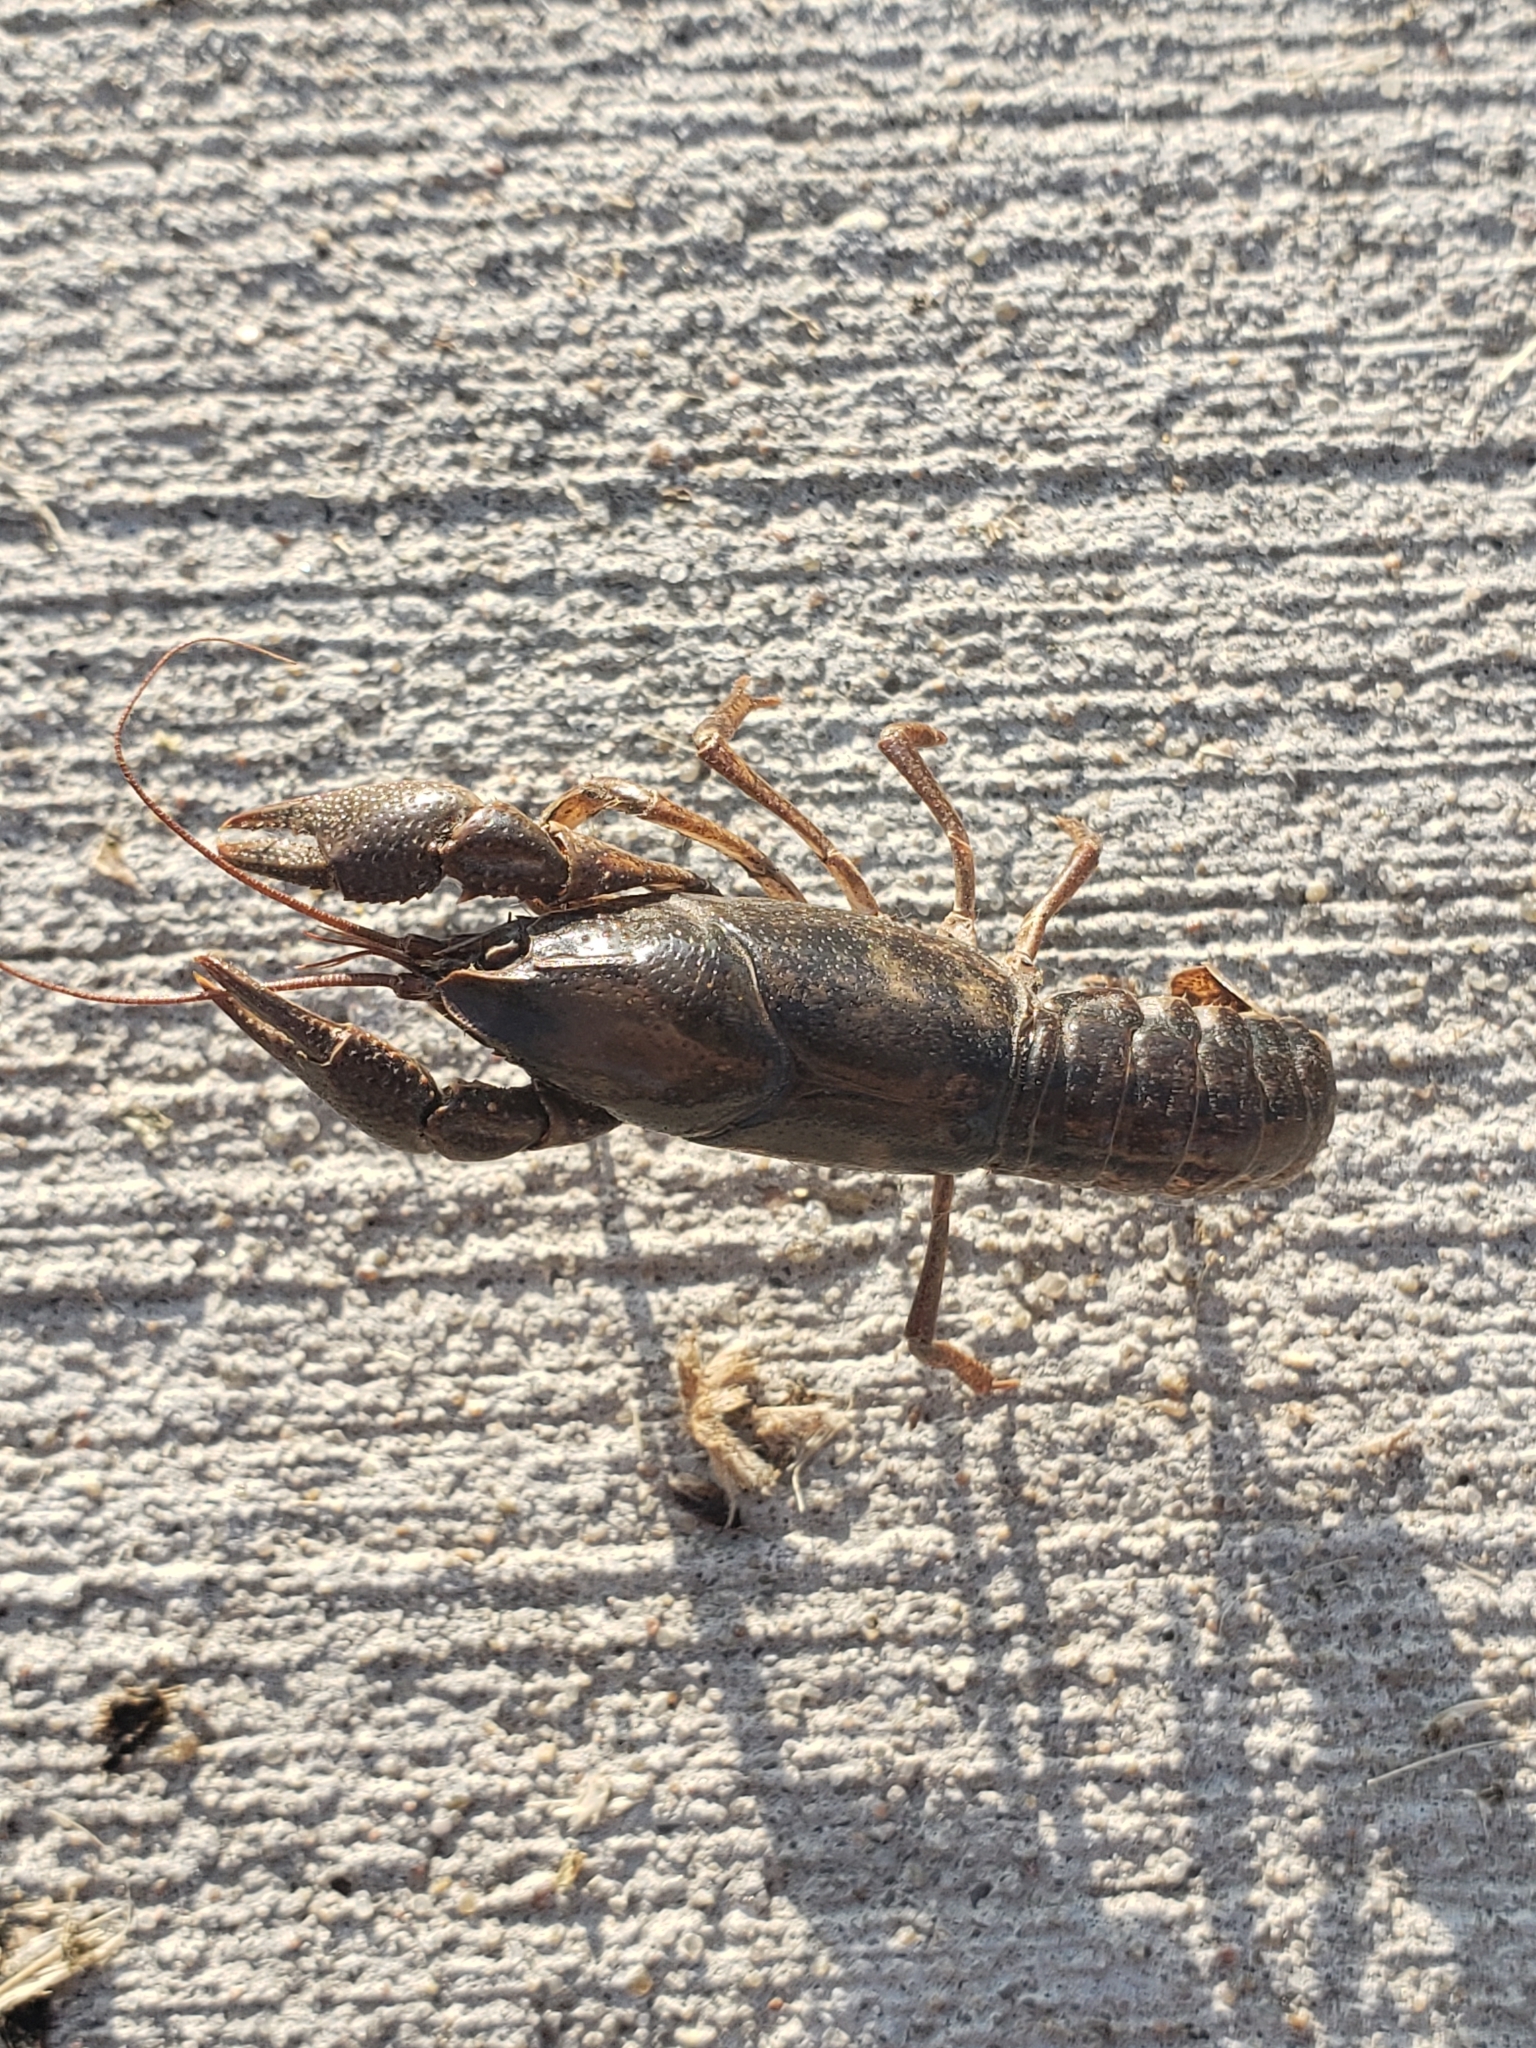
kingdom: Animalia
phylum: Arthropoda
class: Malacostraca
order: Decapoda
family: Cambaridae
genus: Procambarus
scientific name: Procambarus gracilis
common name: Prairie crayfish
